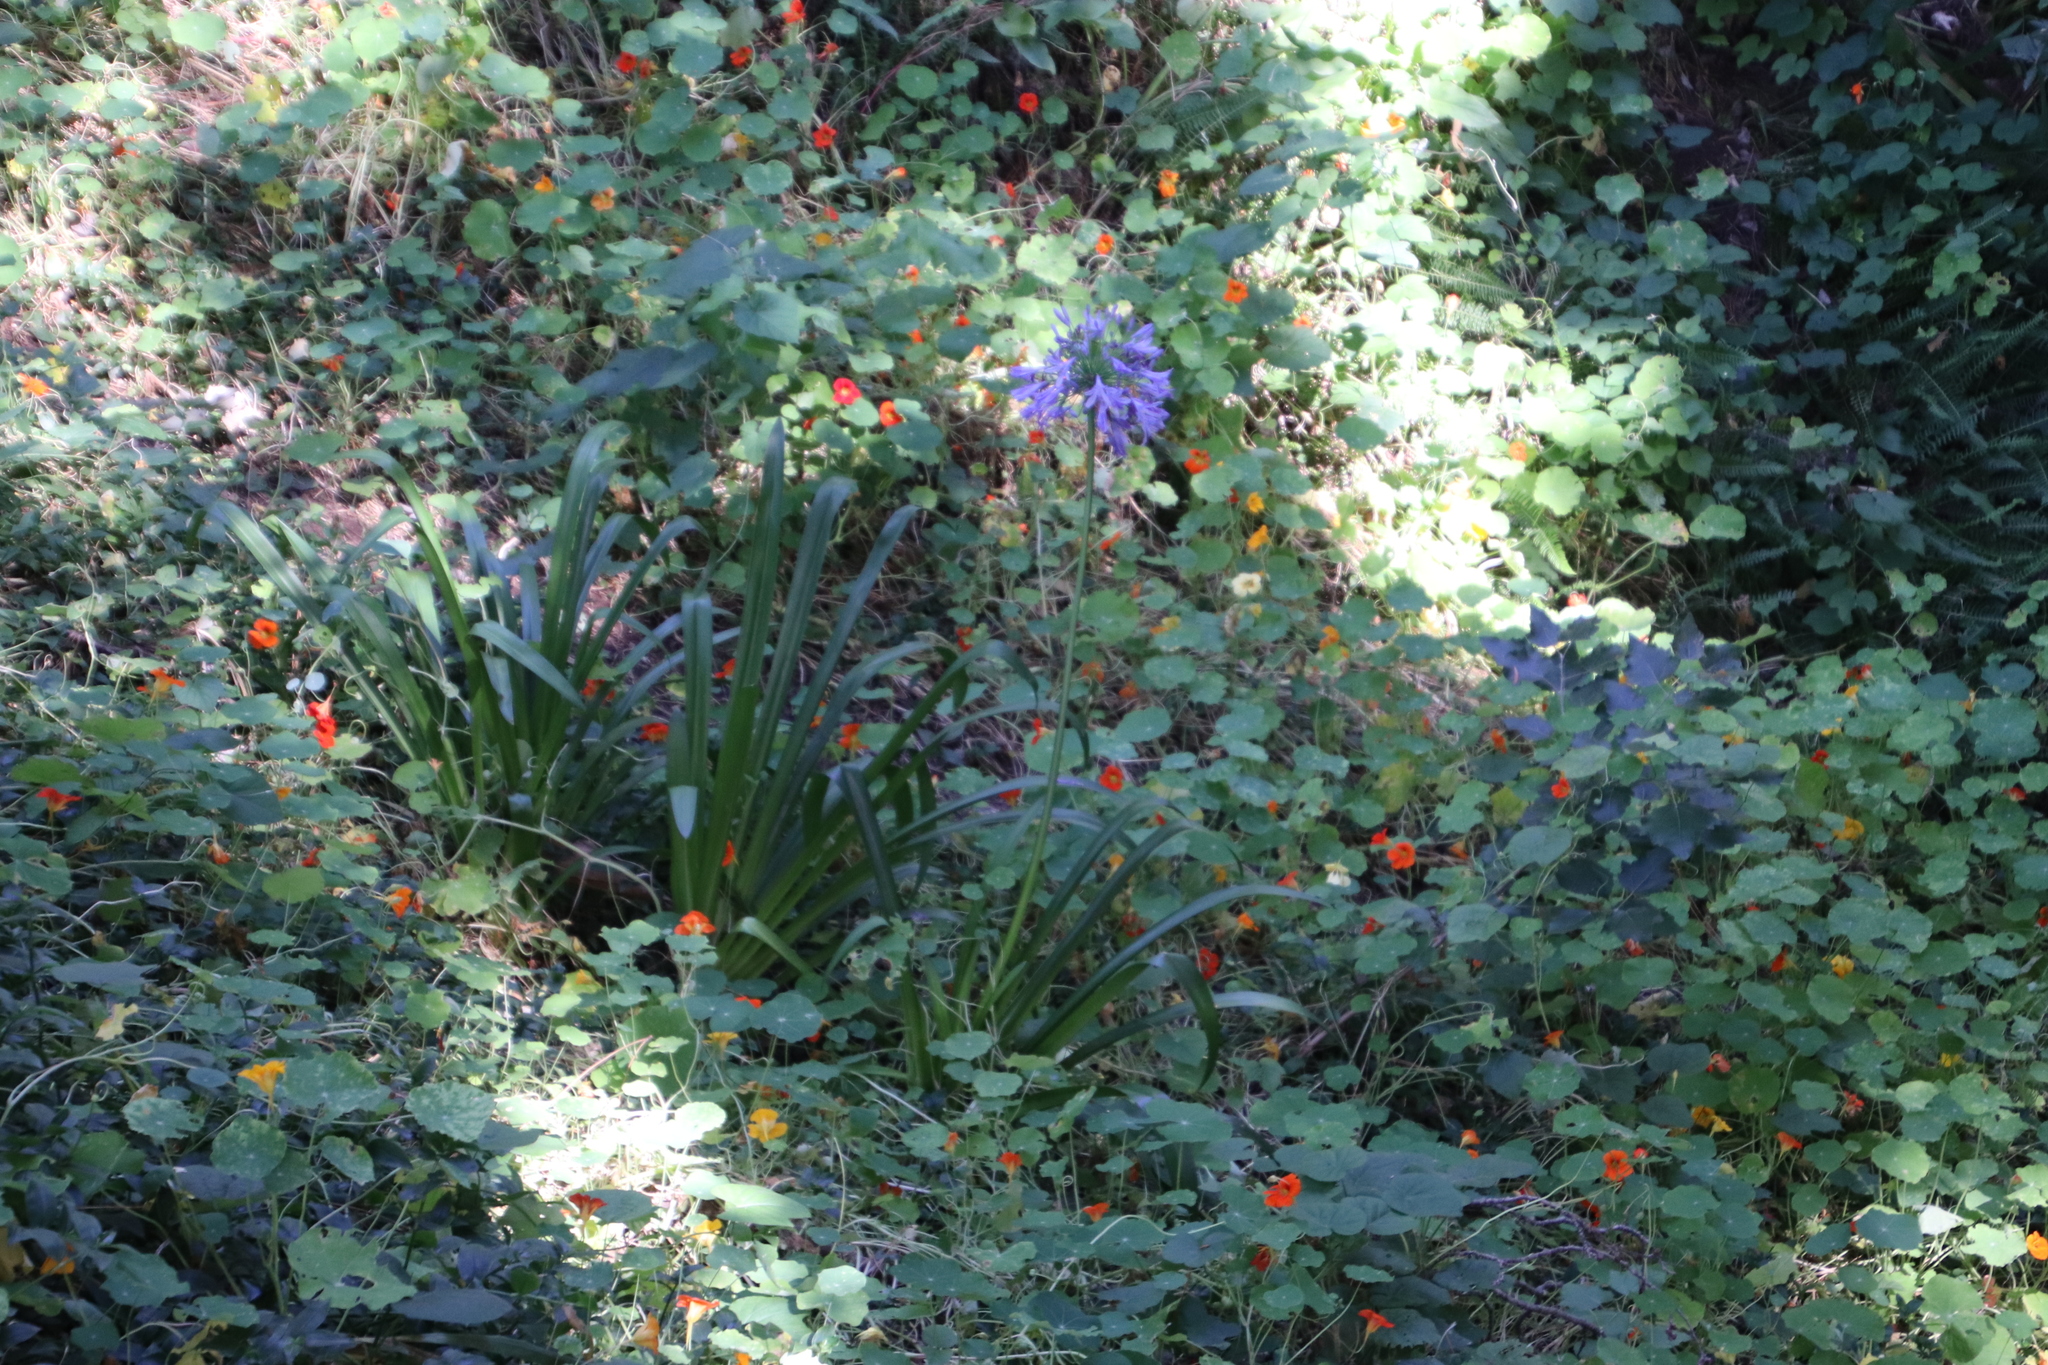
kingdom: Plantae
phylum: Tracheophyta
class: Magnoliopsida
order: Brassicales
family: Tropaeolaceae
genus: Tropaeolum
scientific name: Tropaeolum majus
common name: Nasturtium
